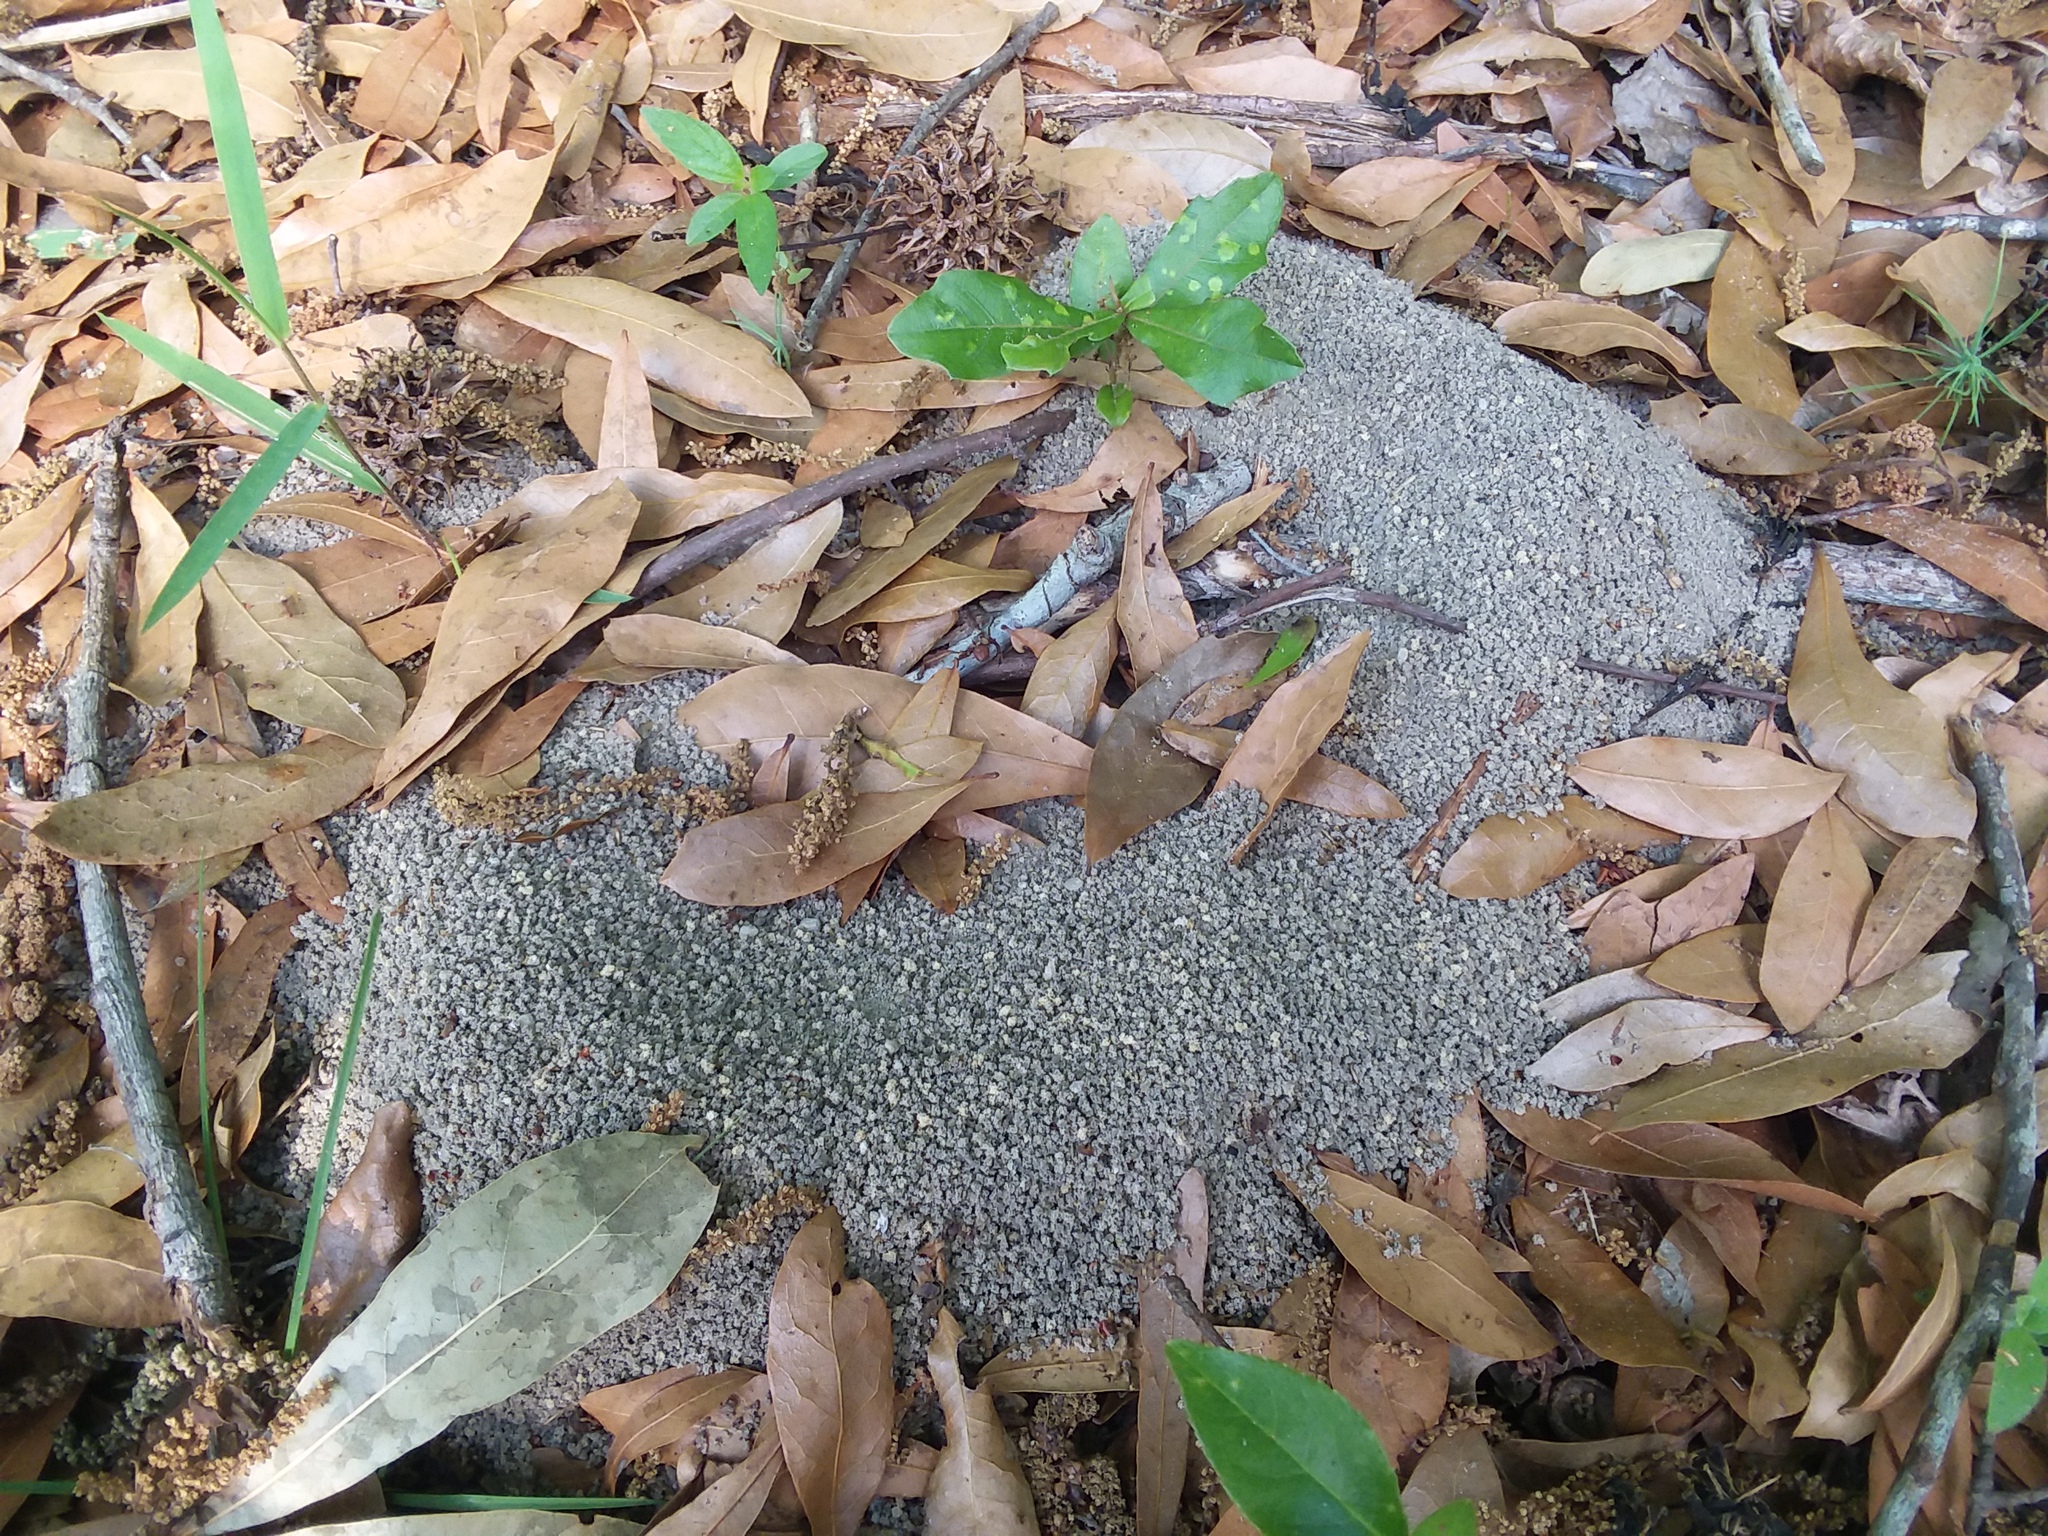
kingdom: Animalia
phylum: Arthropoda
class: Insecta
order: Hymenoptera
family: Formicidae
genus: Trachymyrmex
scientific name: Trachymyrmex septentrionalis
